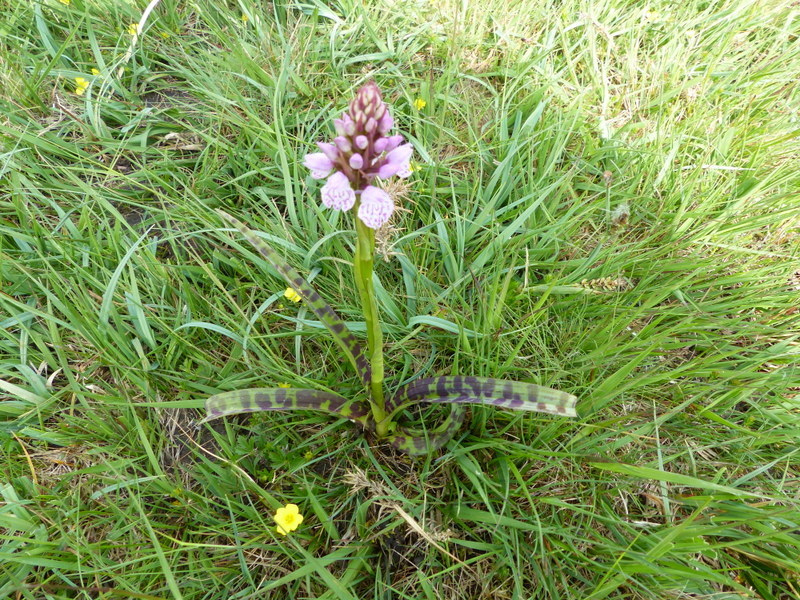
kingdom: Plantae
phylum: Tracheophyta
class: Liliopsida
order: Asparagales
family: Orchidaceae
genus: Dactylorhiza
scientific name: Dactylorhiza maculata
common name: Heath spotted-orchid
